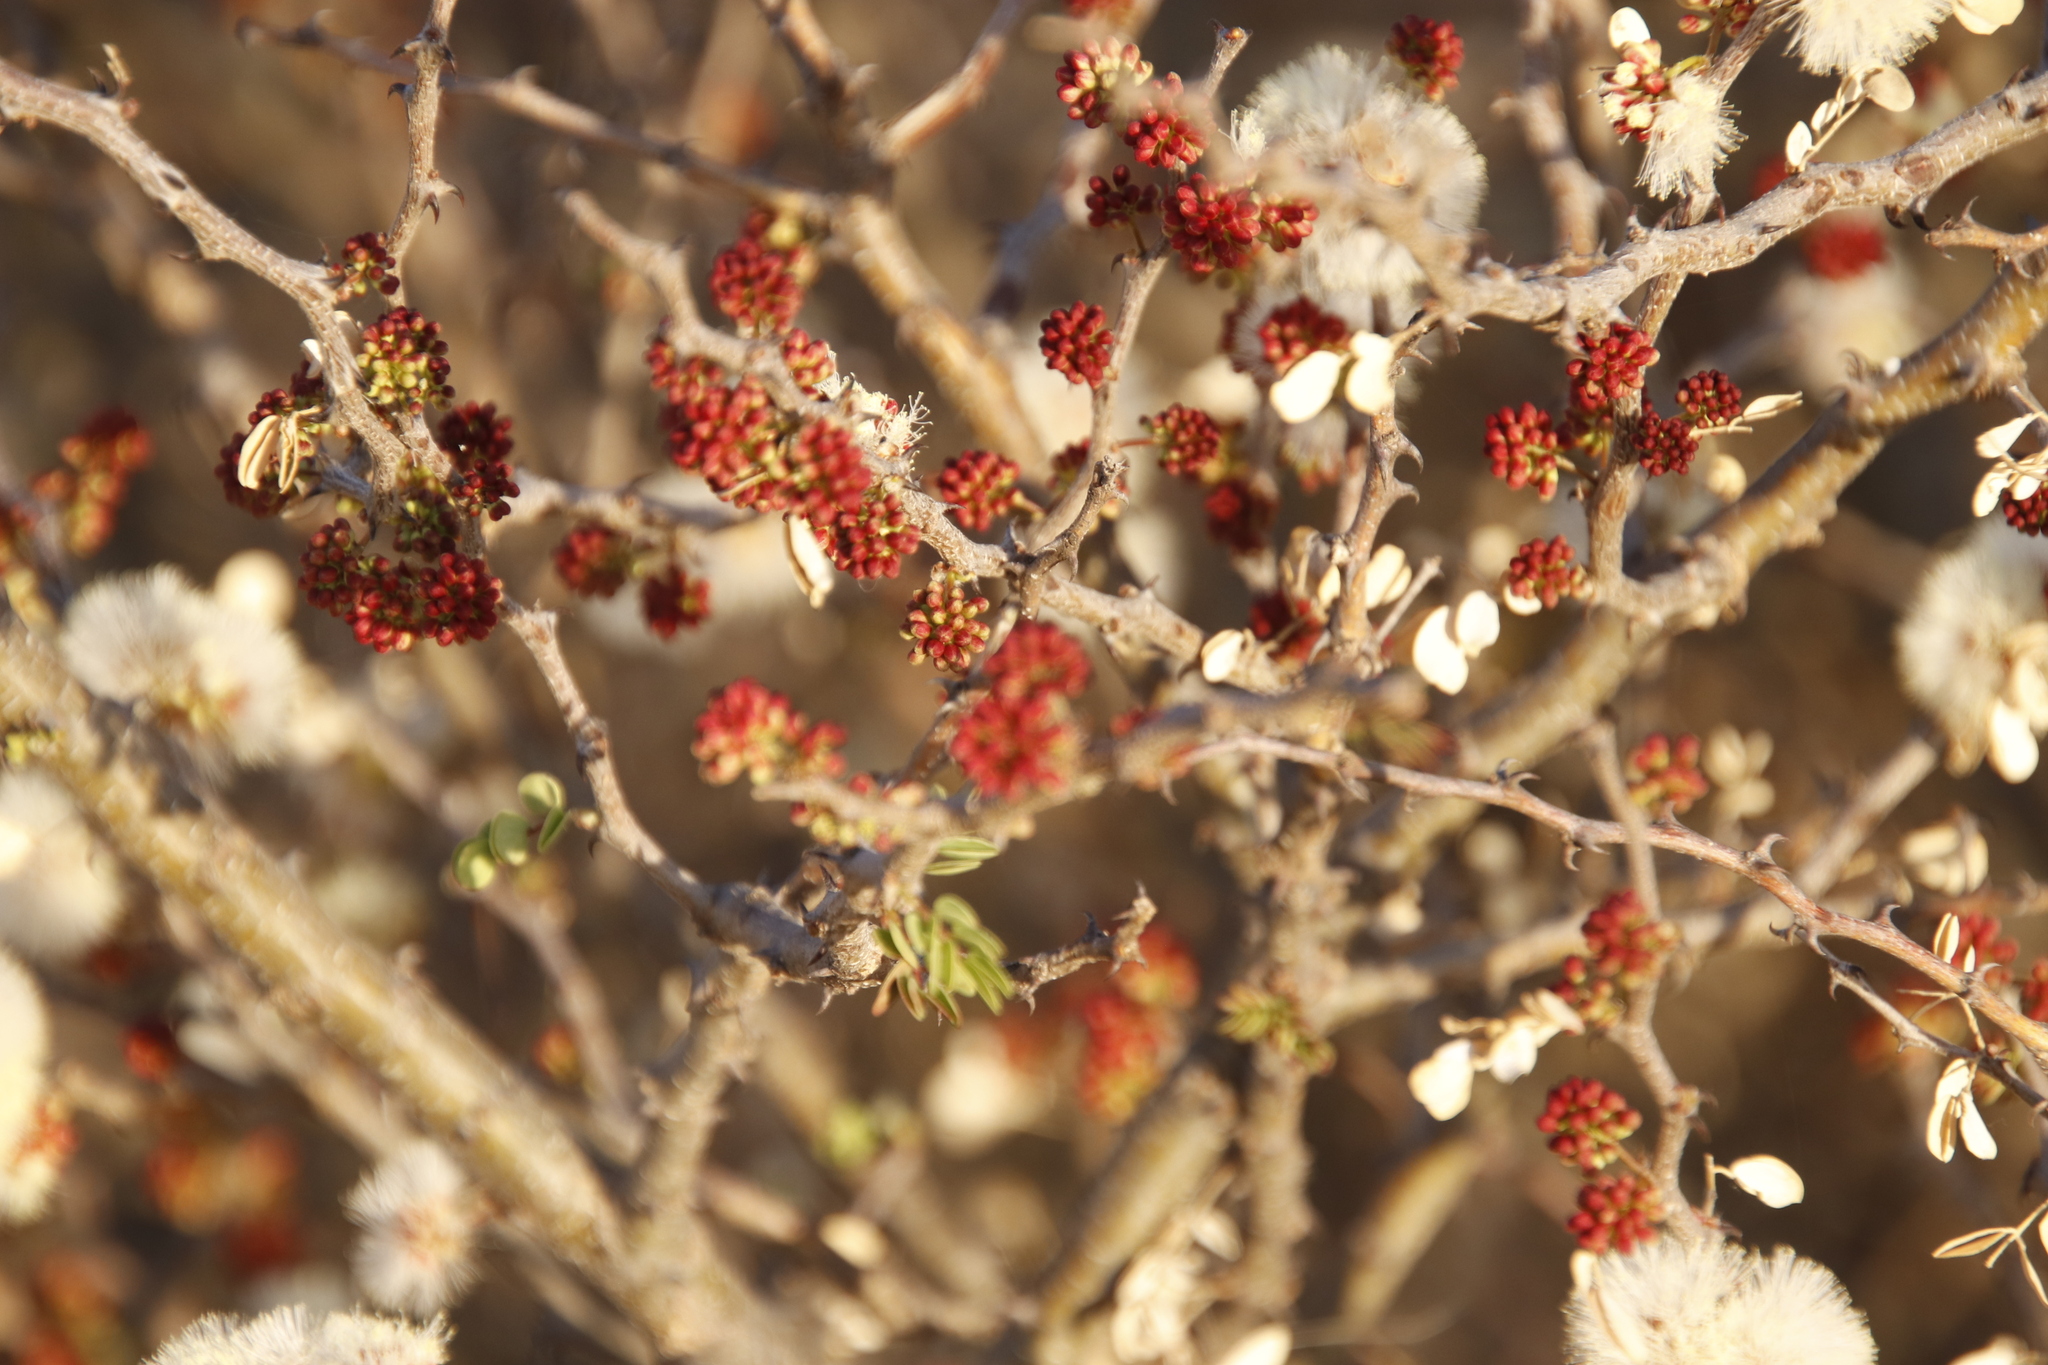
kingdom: Plantae
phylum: Tracheophyta
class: Magnoliopsida
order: Fabales
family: Fabaceae
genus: Senegalia
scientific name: Senegalia mellifera
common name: Hookthorn
